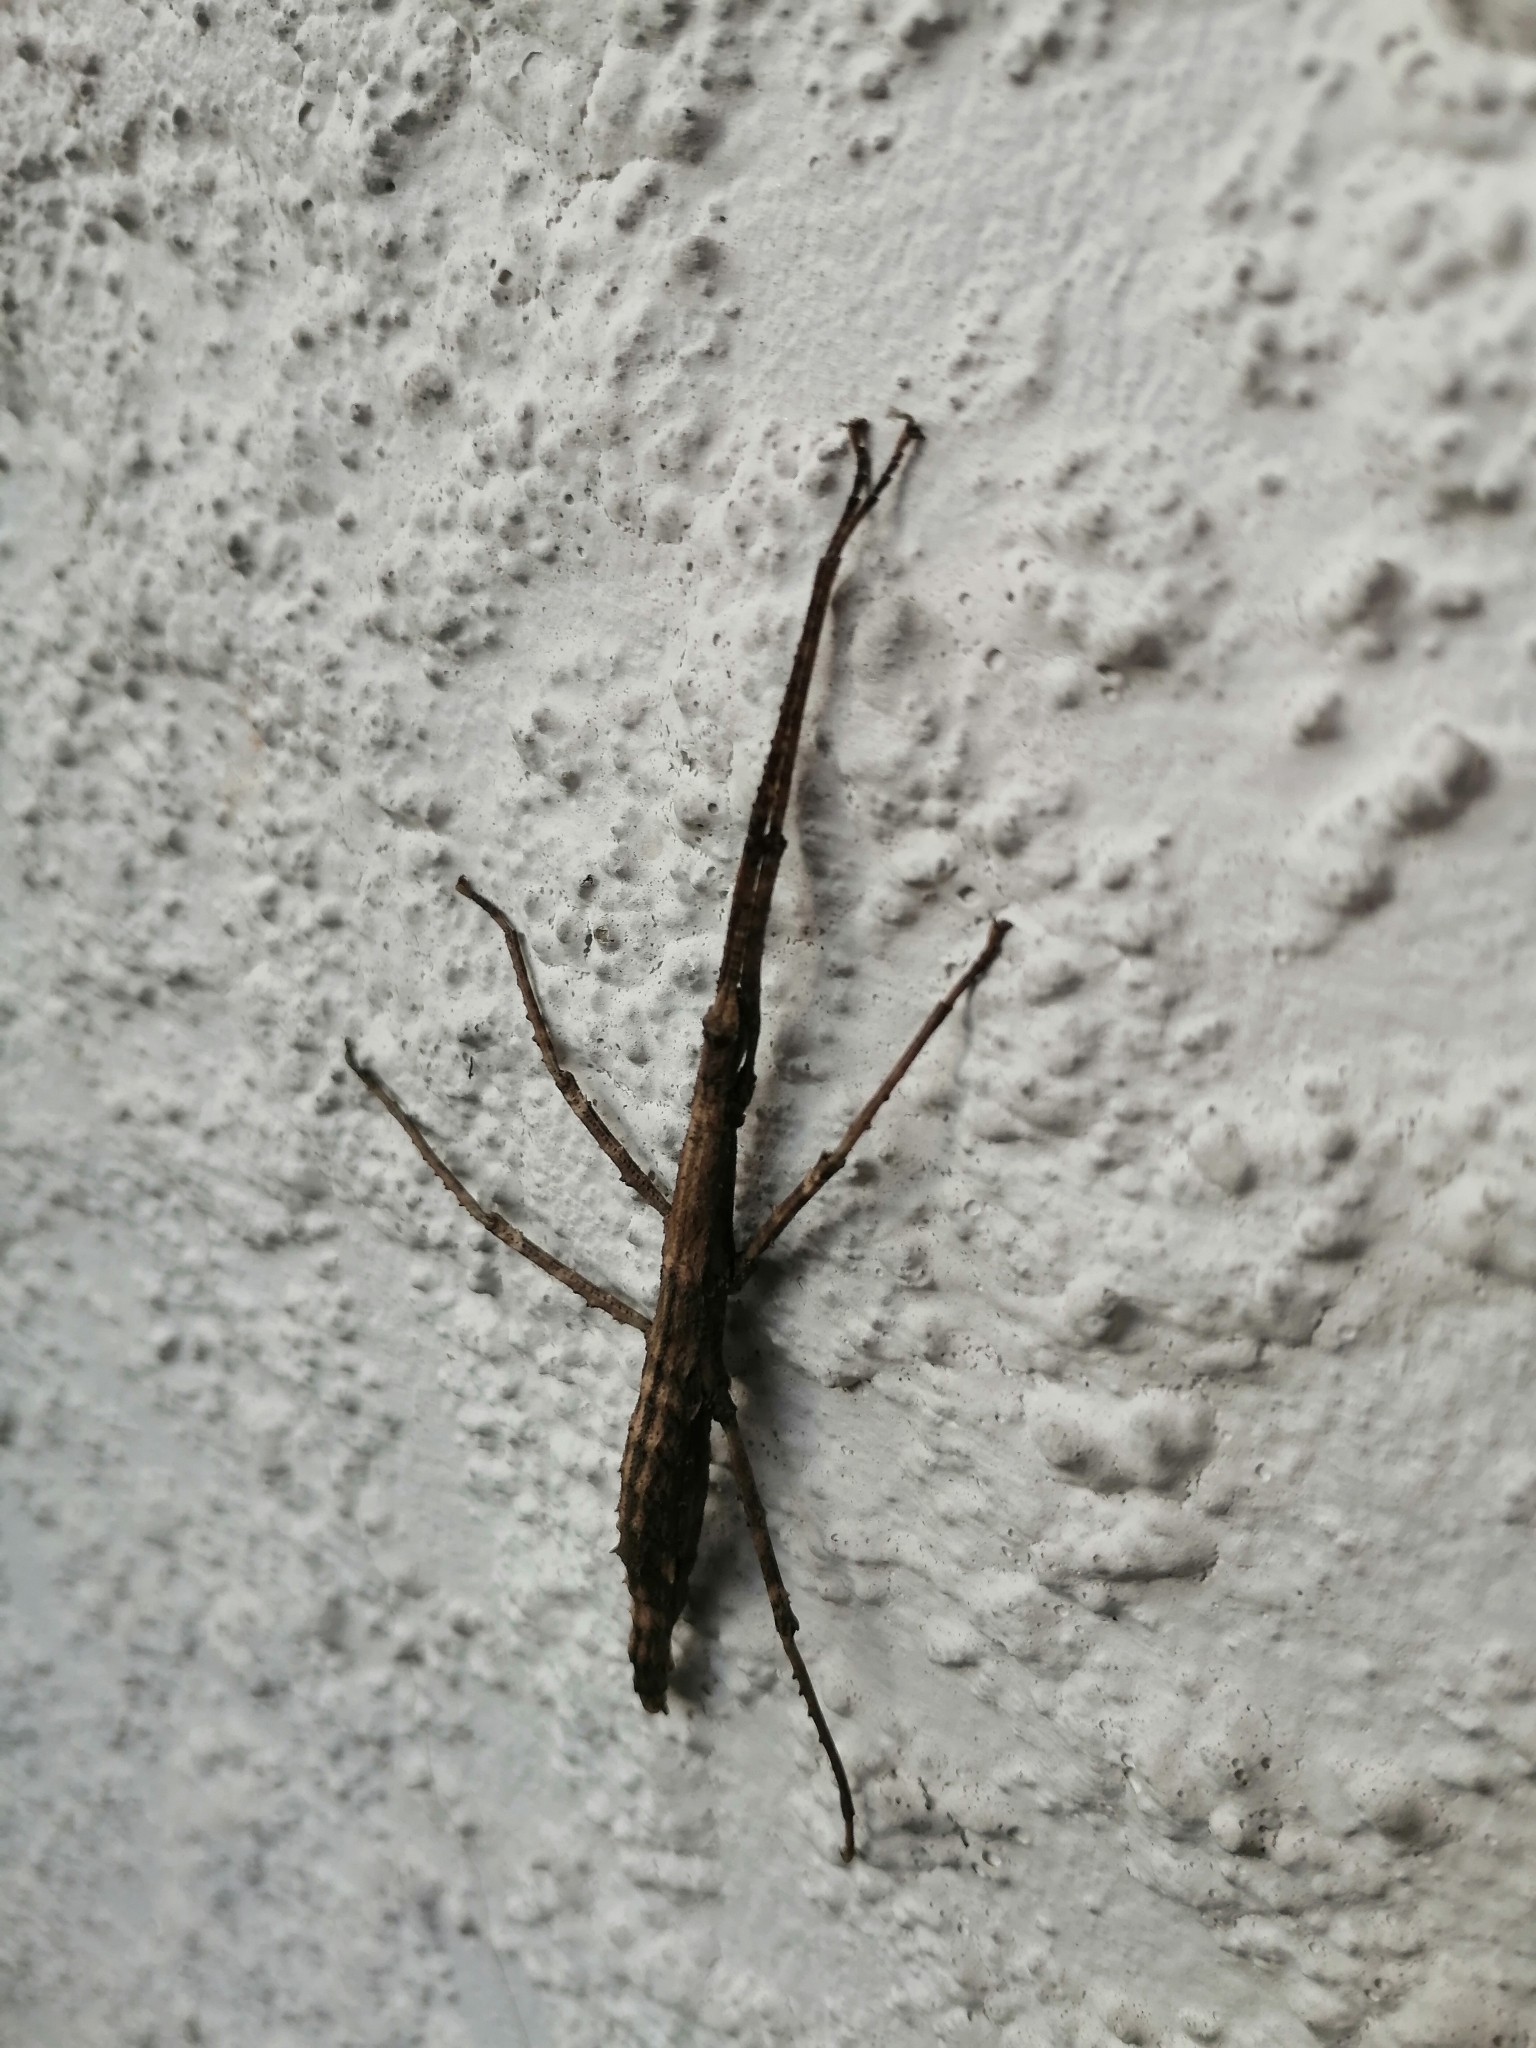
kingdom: Animalia
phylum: Arthropoda
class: Insecta
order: Phasmida
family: Phasmatidae
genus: Niveaphasma
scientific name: Niveaphasma annulatum
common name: Hutton's stick insect
